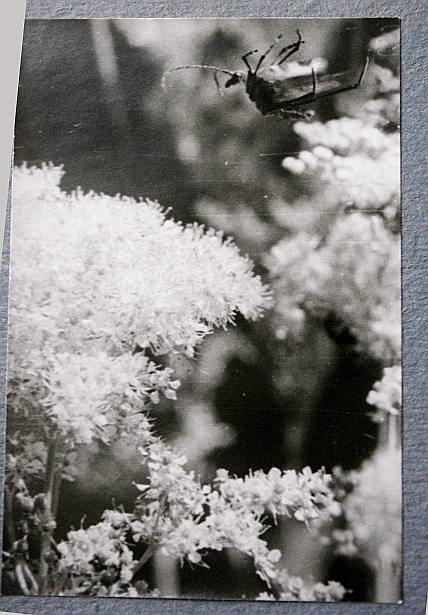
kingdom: Plantae
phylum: Tracheophyta
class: Magnoliopsida
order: Rosales
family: Rosaceae
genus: Filipendula
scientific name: Filipendula ulmaria
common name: Meadowsweet
